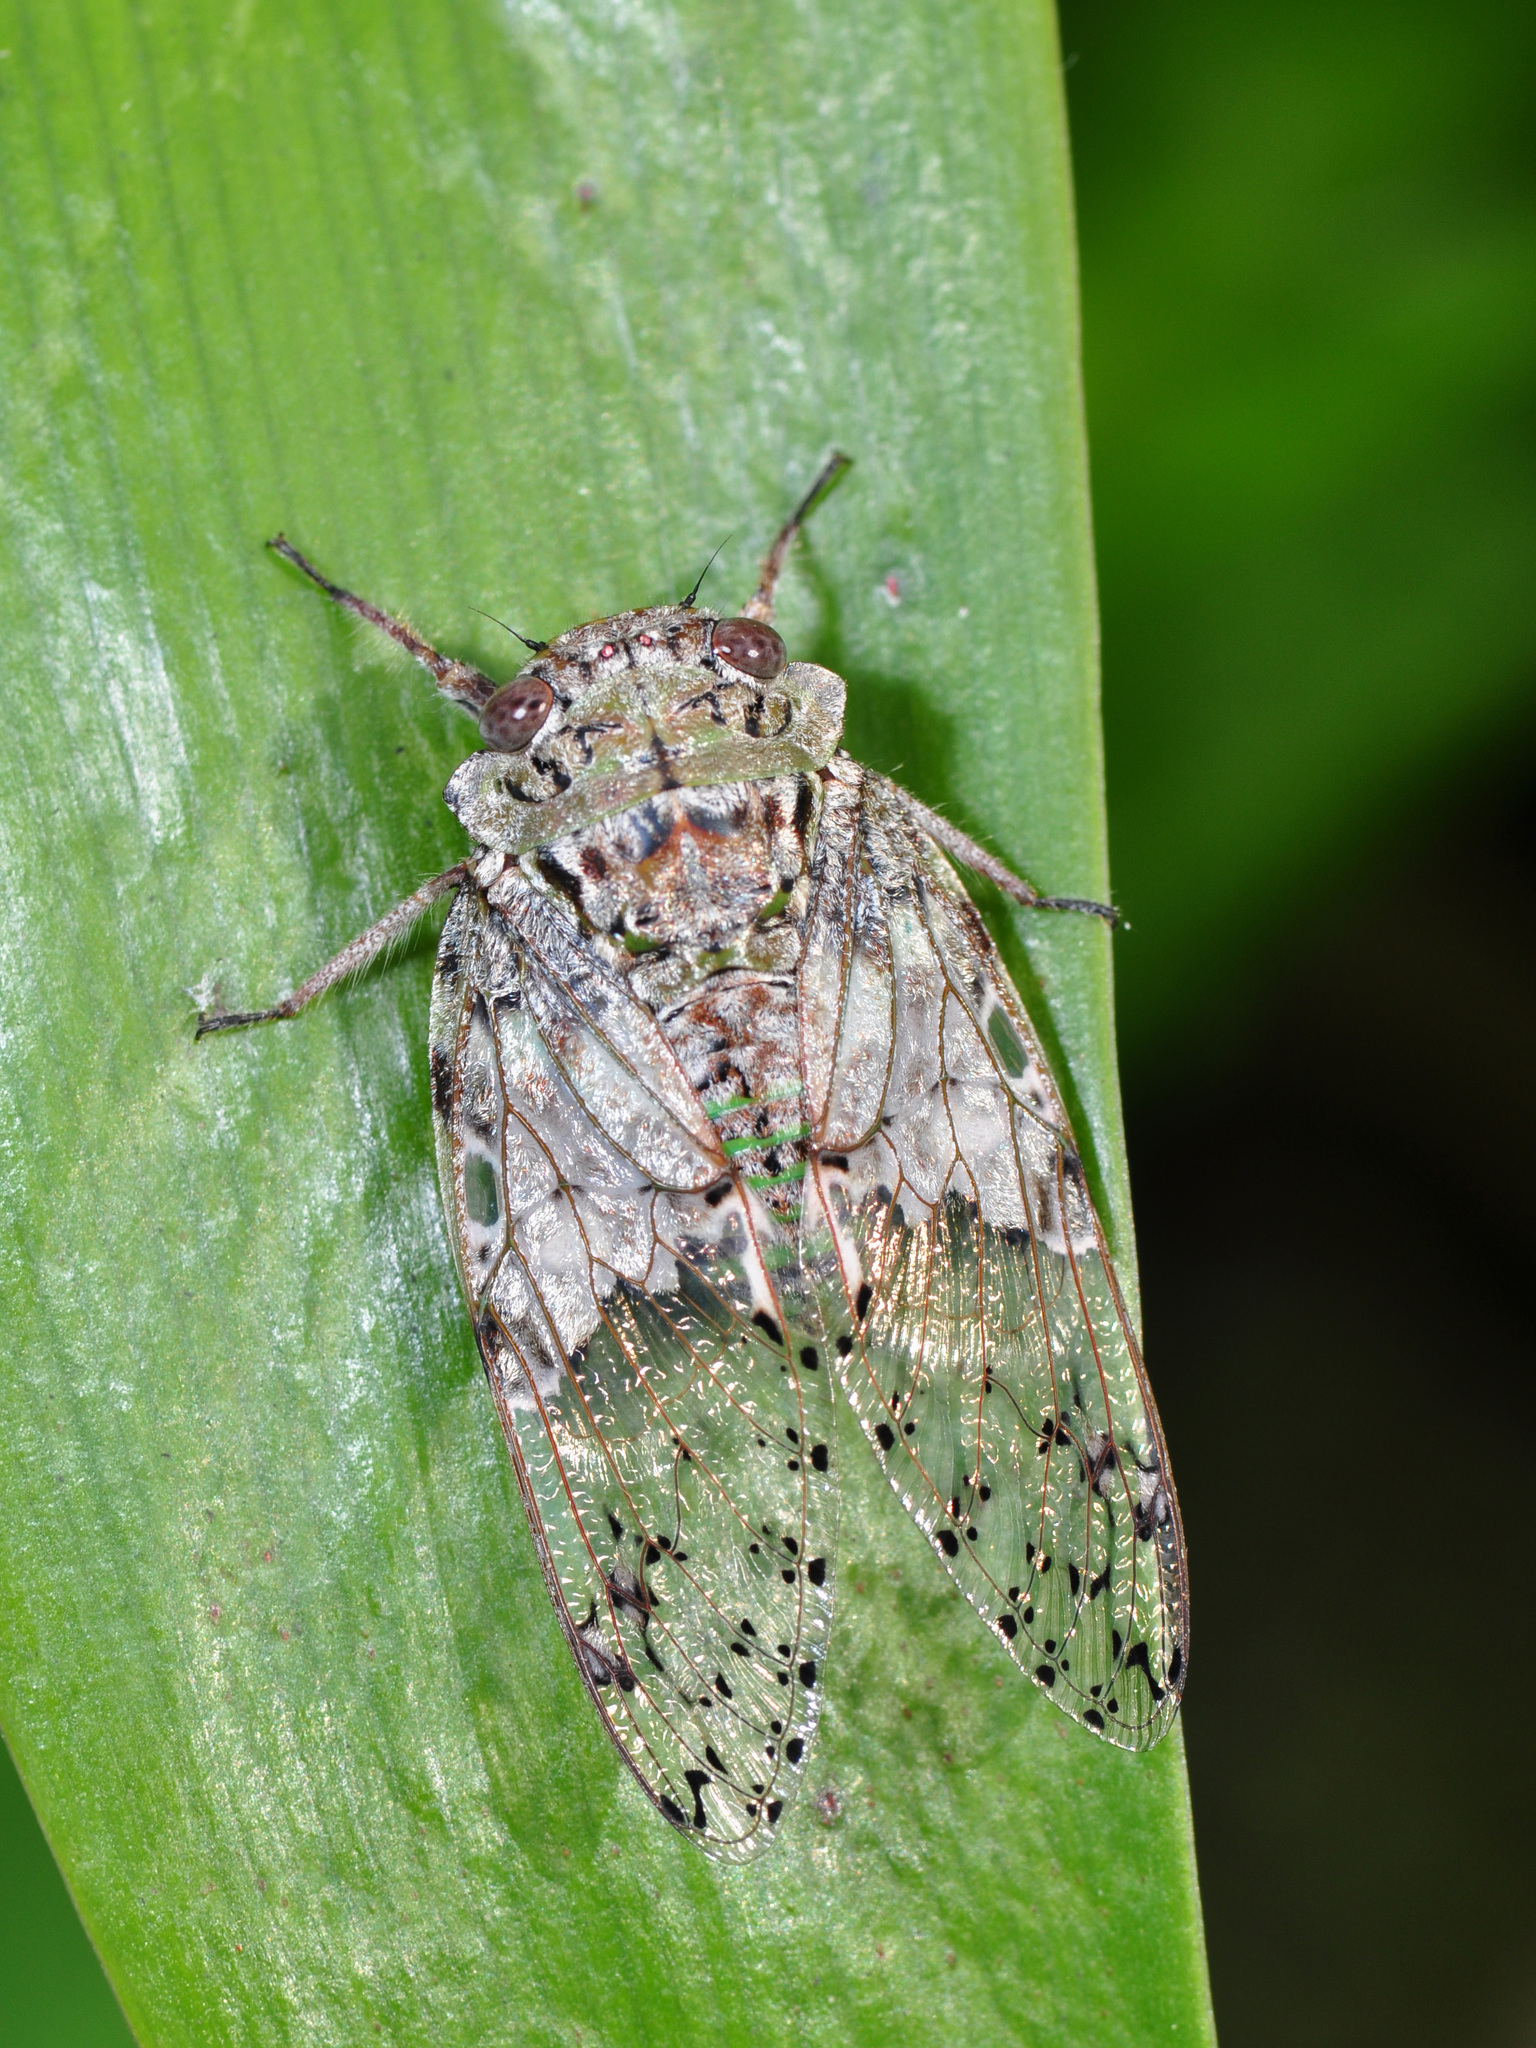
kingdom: Animalia
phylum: Arthropoda
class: Insecta
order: Hemiptera
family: Cicadidae
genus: Afzeliada
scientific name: Afzeliada badia
